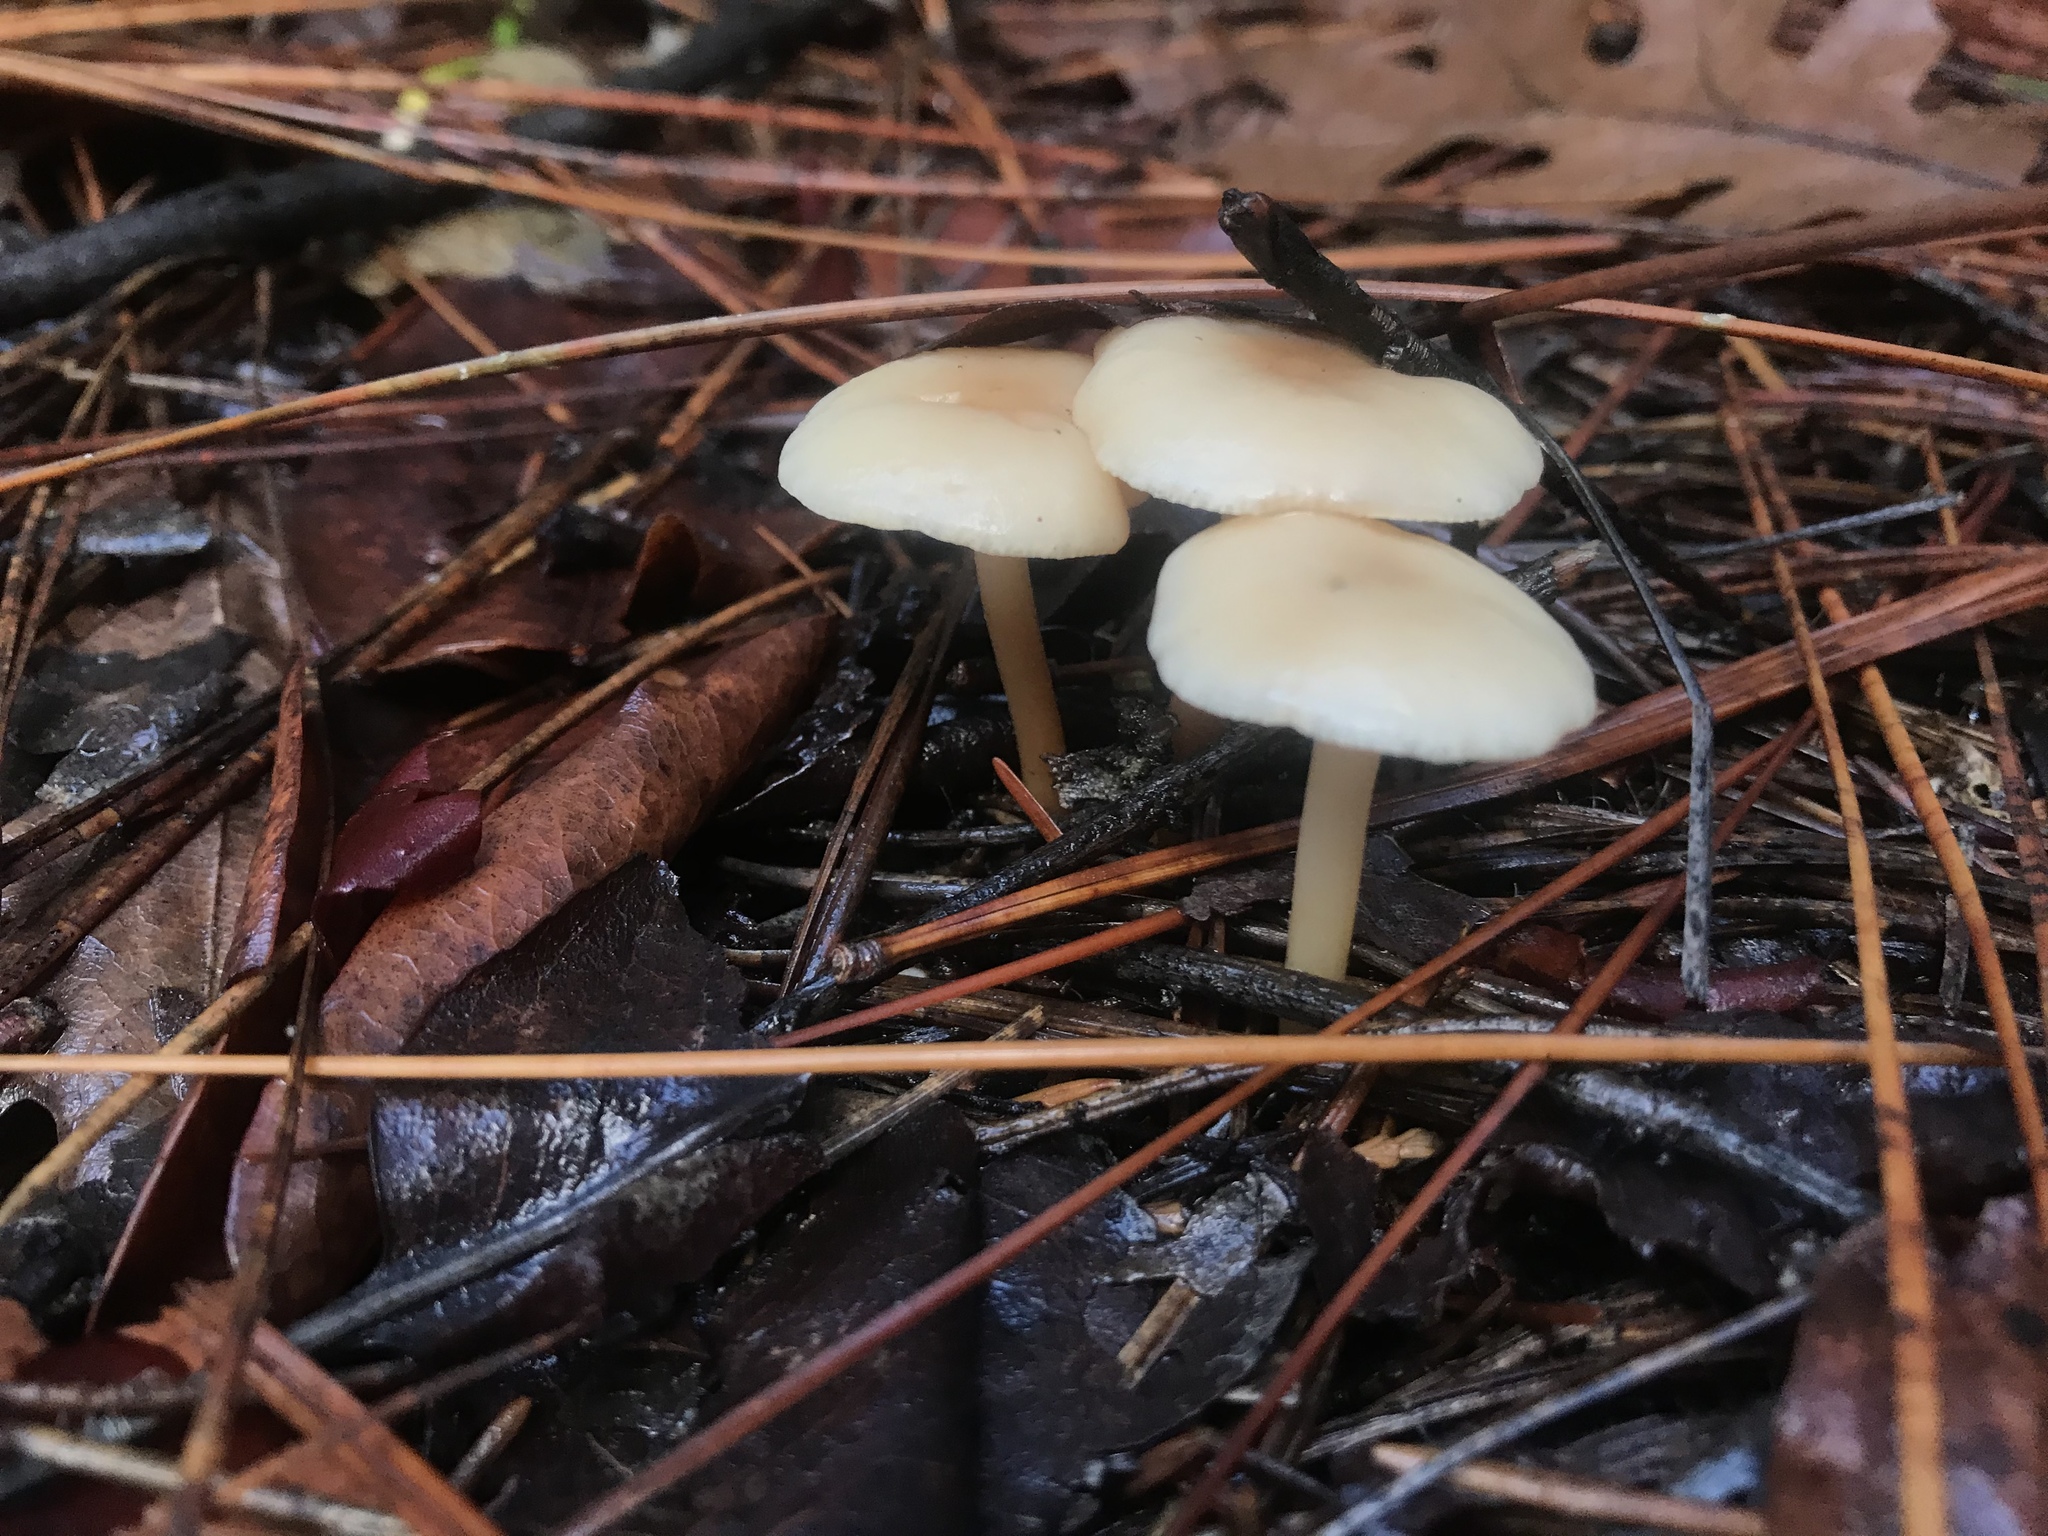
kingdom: Fungi
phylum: Basidiomycota
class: Agaricomycetes
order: Agaricales
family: Omphalotaceae
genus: Gymnopus
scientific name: Gymnopus dryophilus
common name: Penny top
